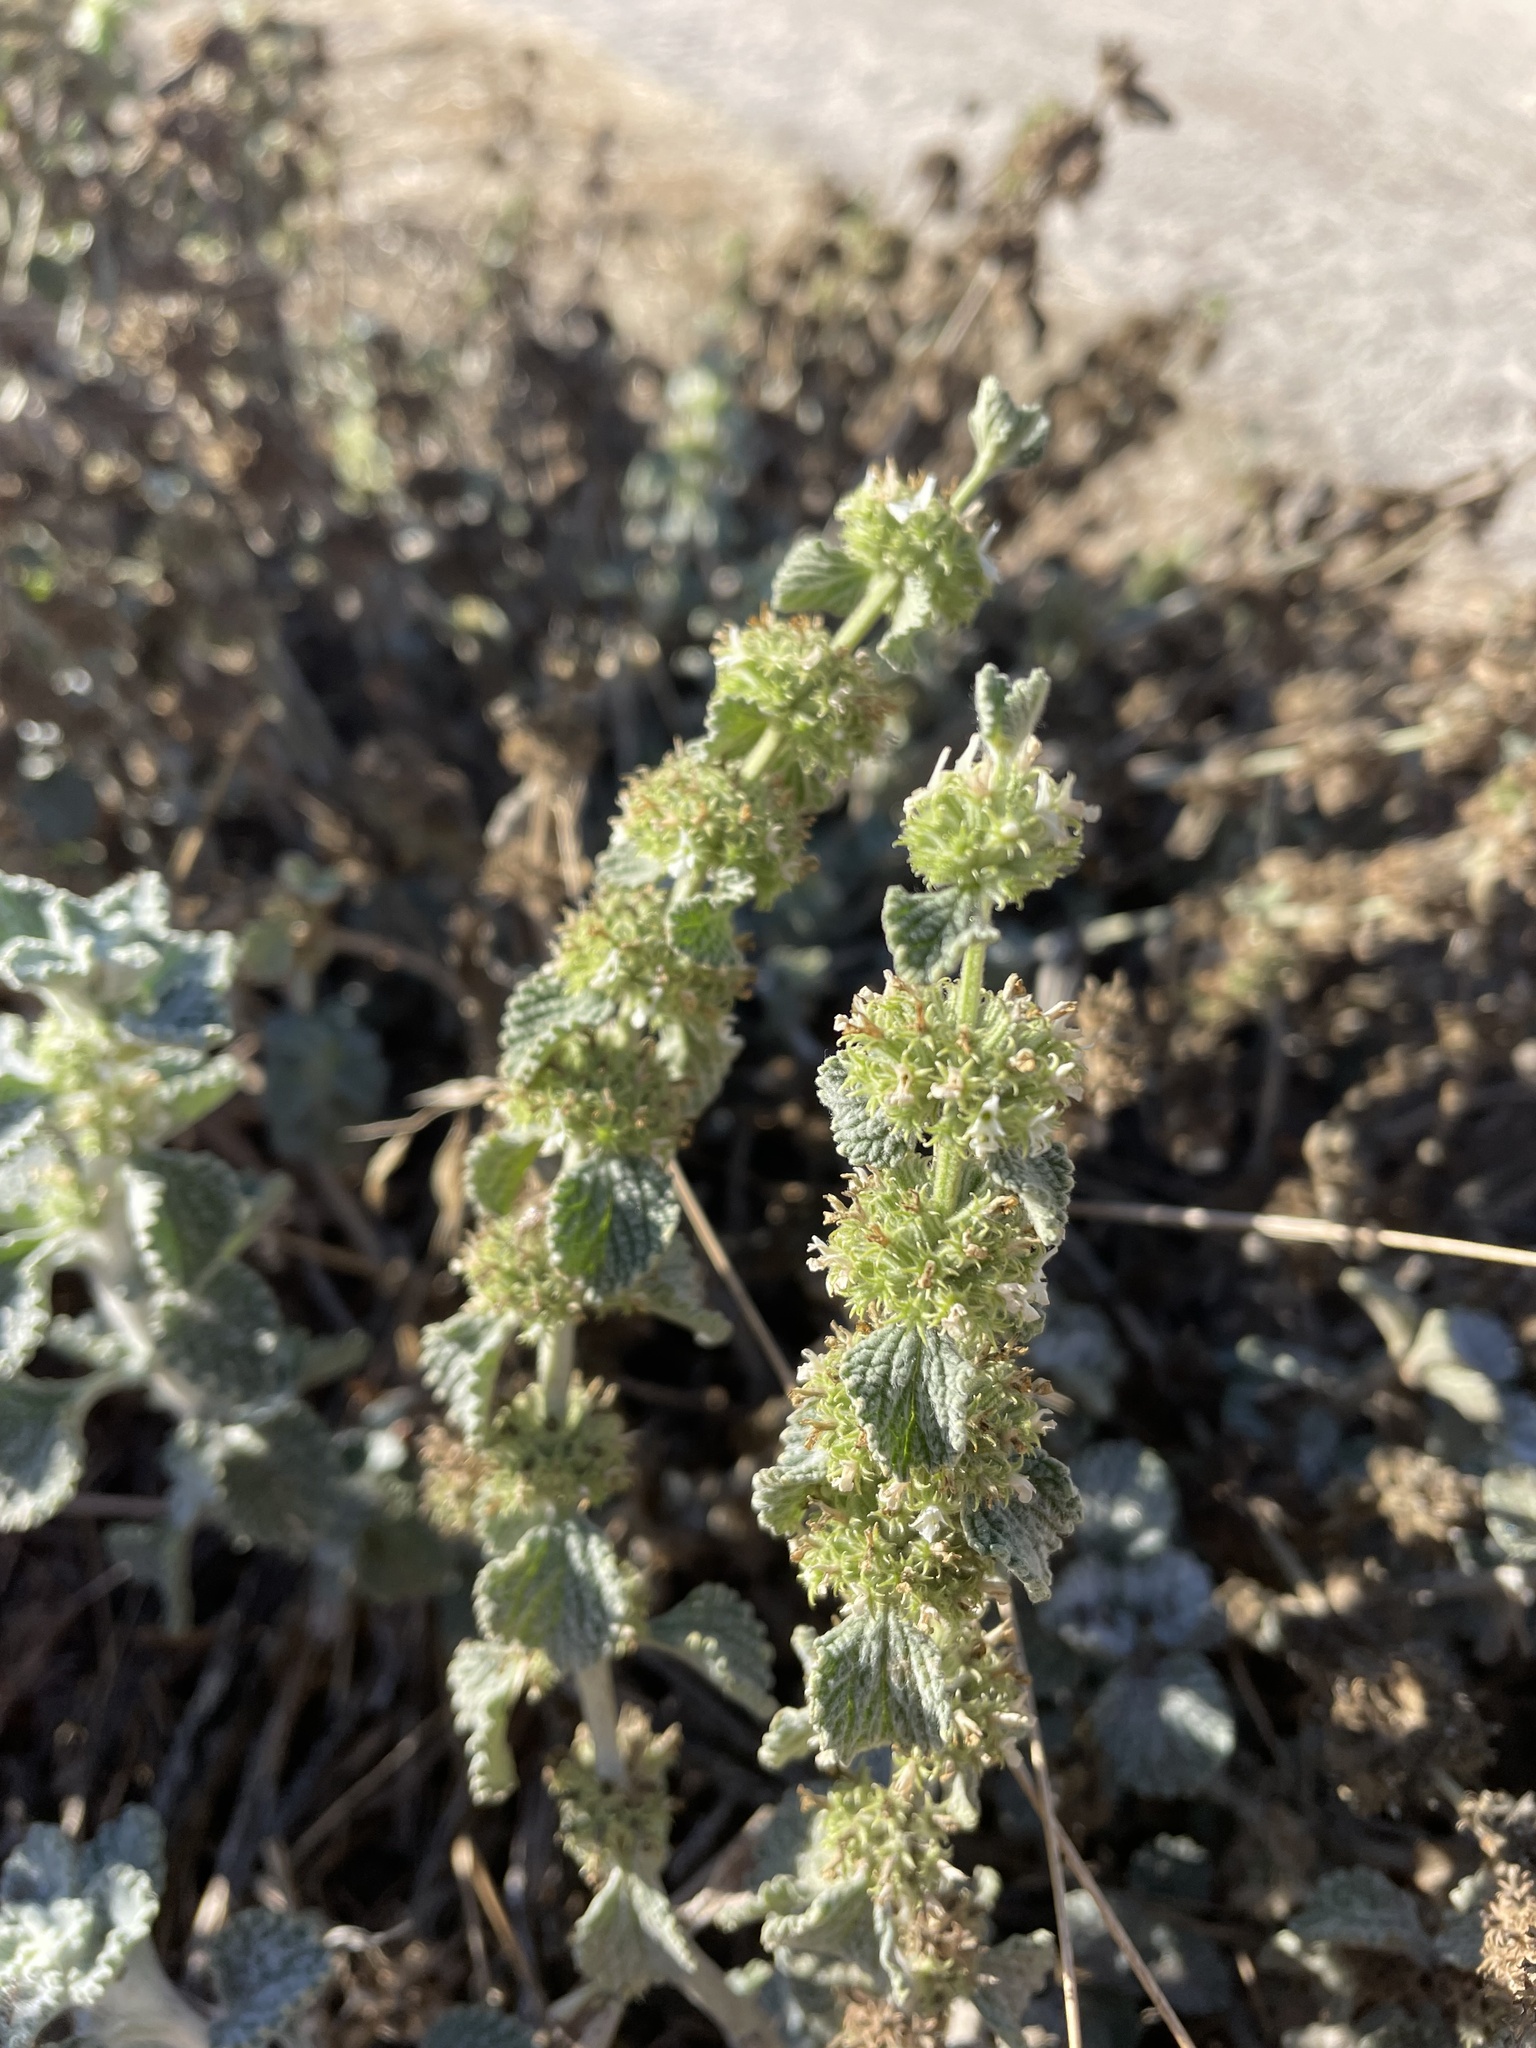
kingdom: Plantae
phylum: Tracheophyta
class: Magnoliopsida
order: Lamiales
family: Lamiaceae
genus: Marrubium
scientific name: Marrubium vulgare
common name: Horehound
